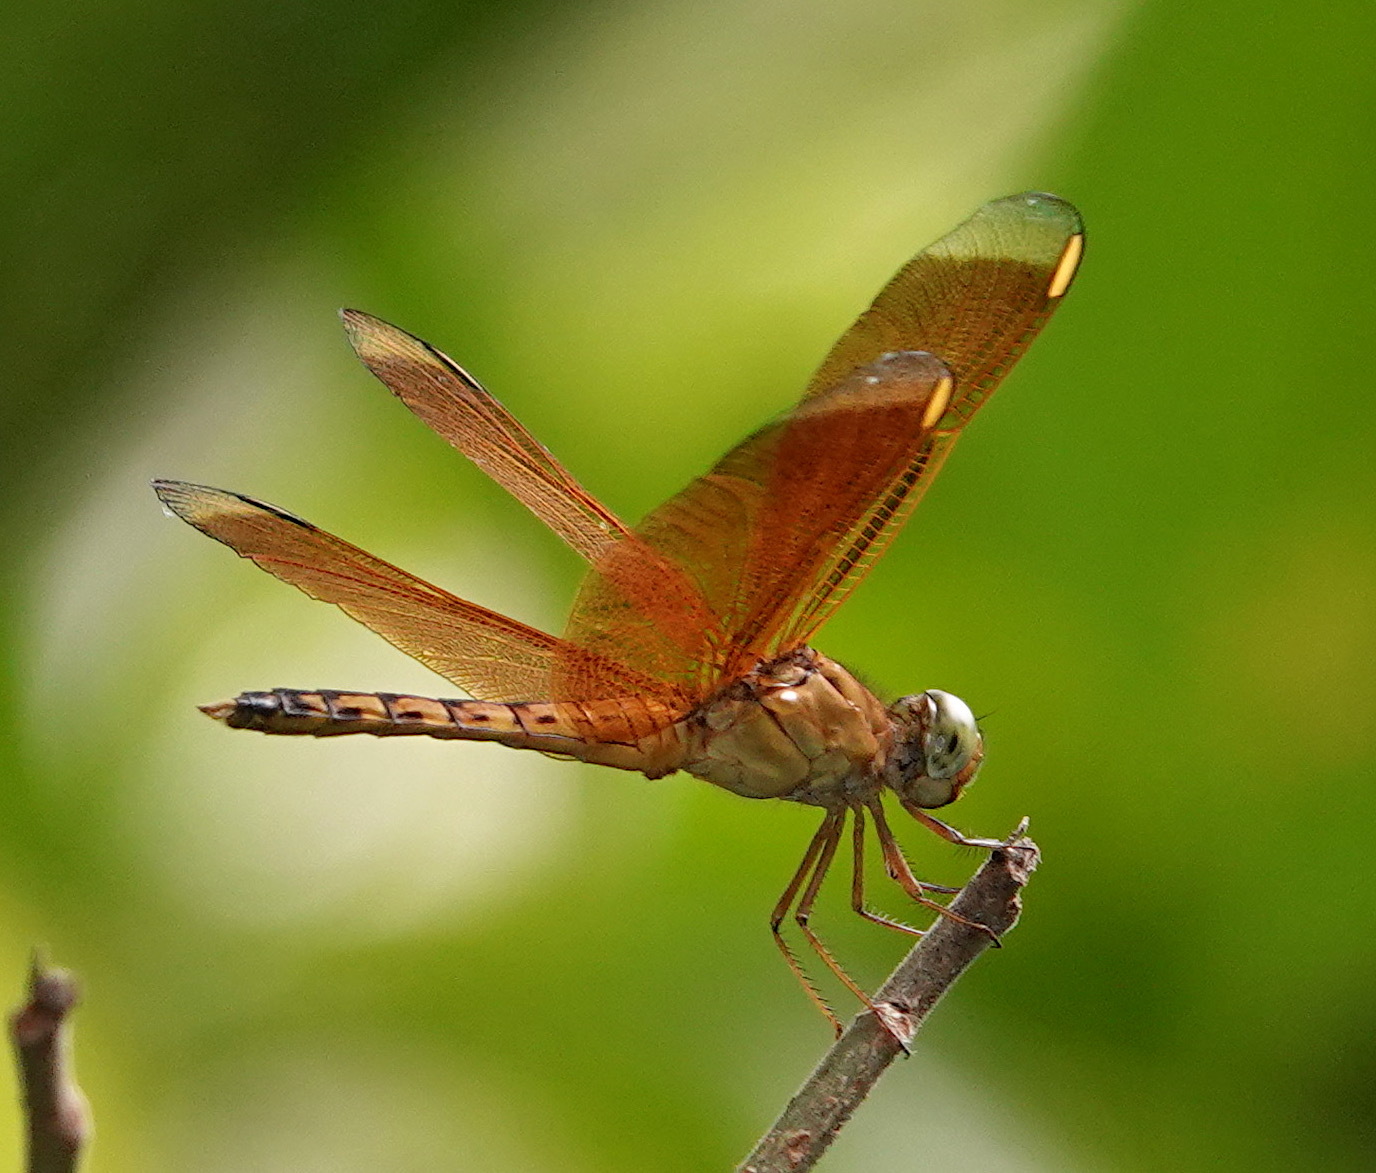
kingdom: Animalia
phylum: Arthropoda
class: Insecta
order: Odonata
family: Libellulidae
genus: Neurothemis
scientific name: Neurothemis terminata
